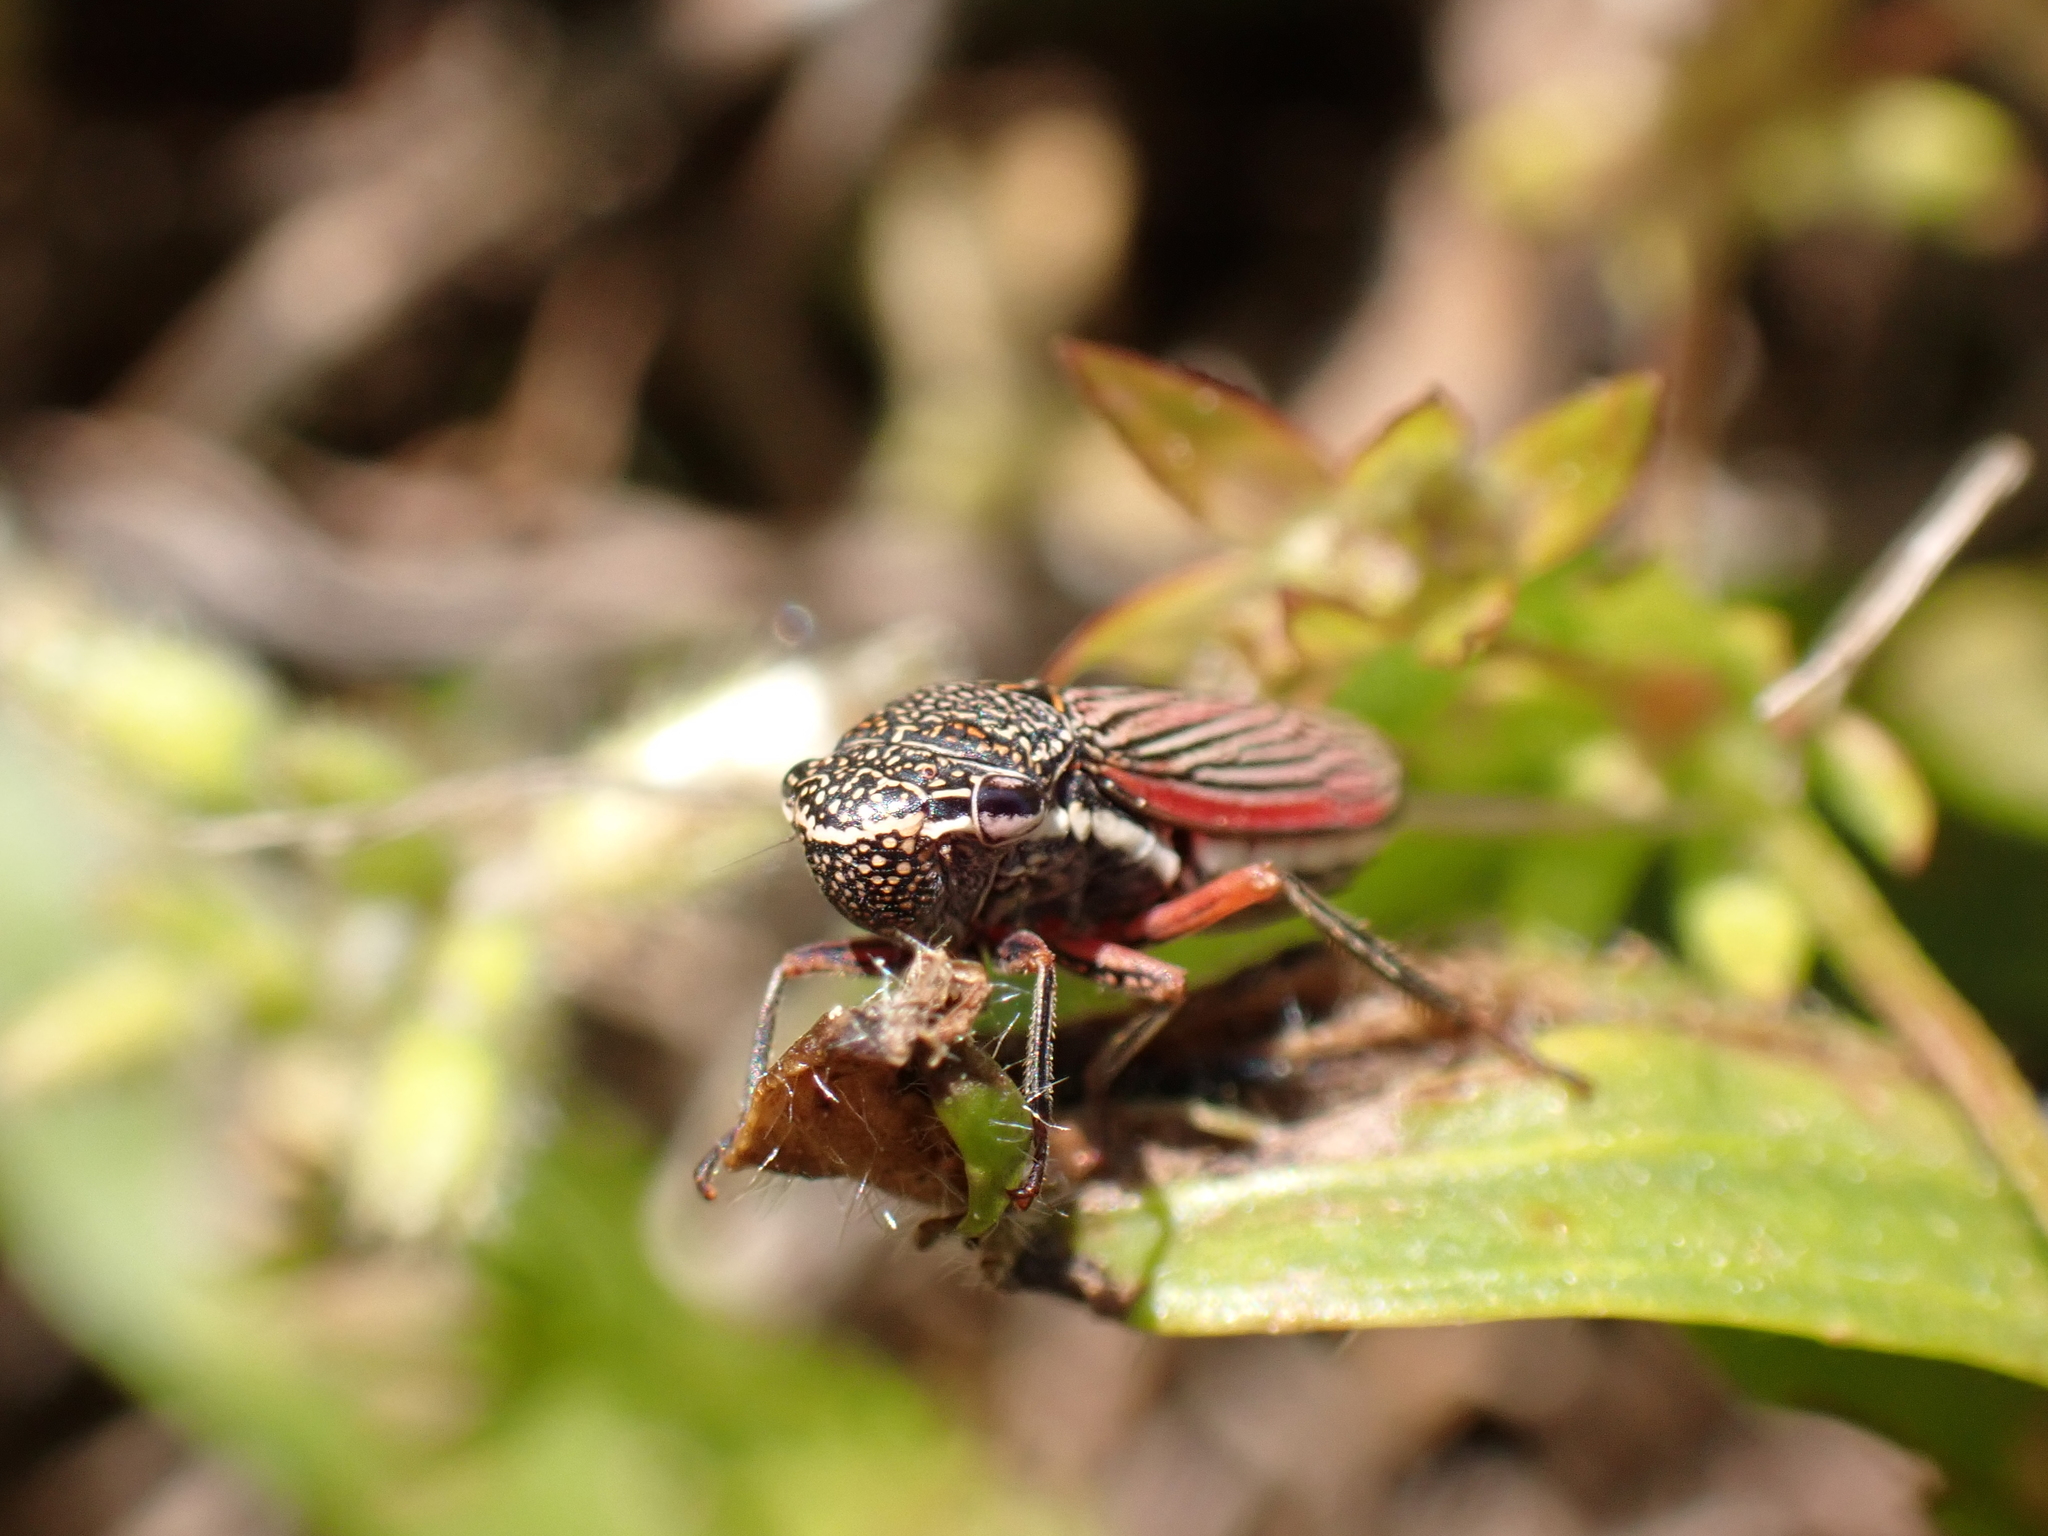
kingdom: Animalia
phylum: Arthropoda
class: Insecta
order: Hemiptera
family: Cicadellidae
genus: Cuerna
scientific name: Cuerna costalis
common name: Lateral-lined sharpshooter
